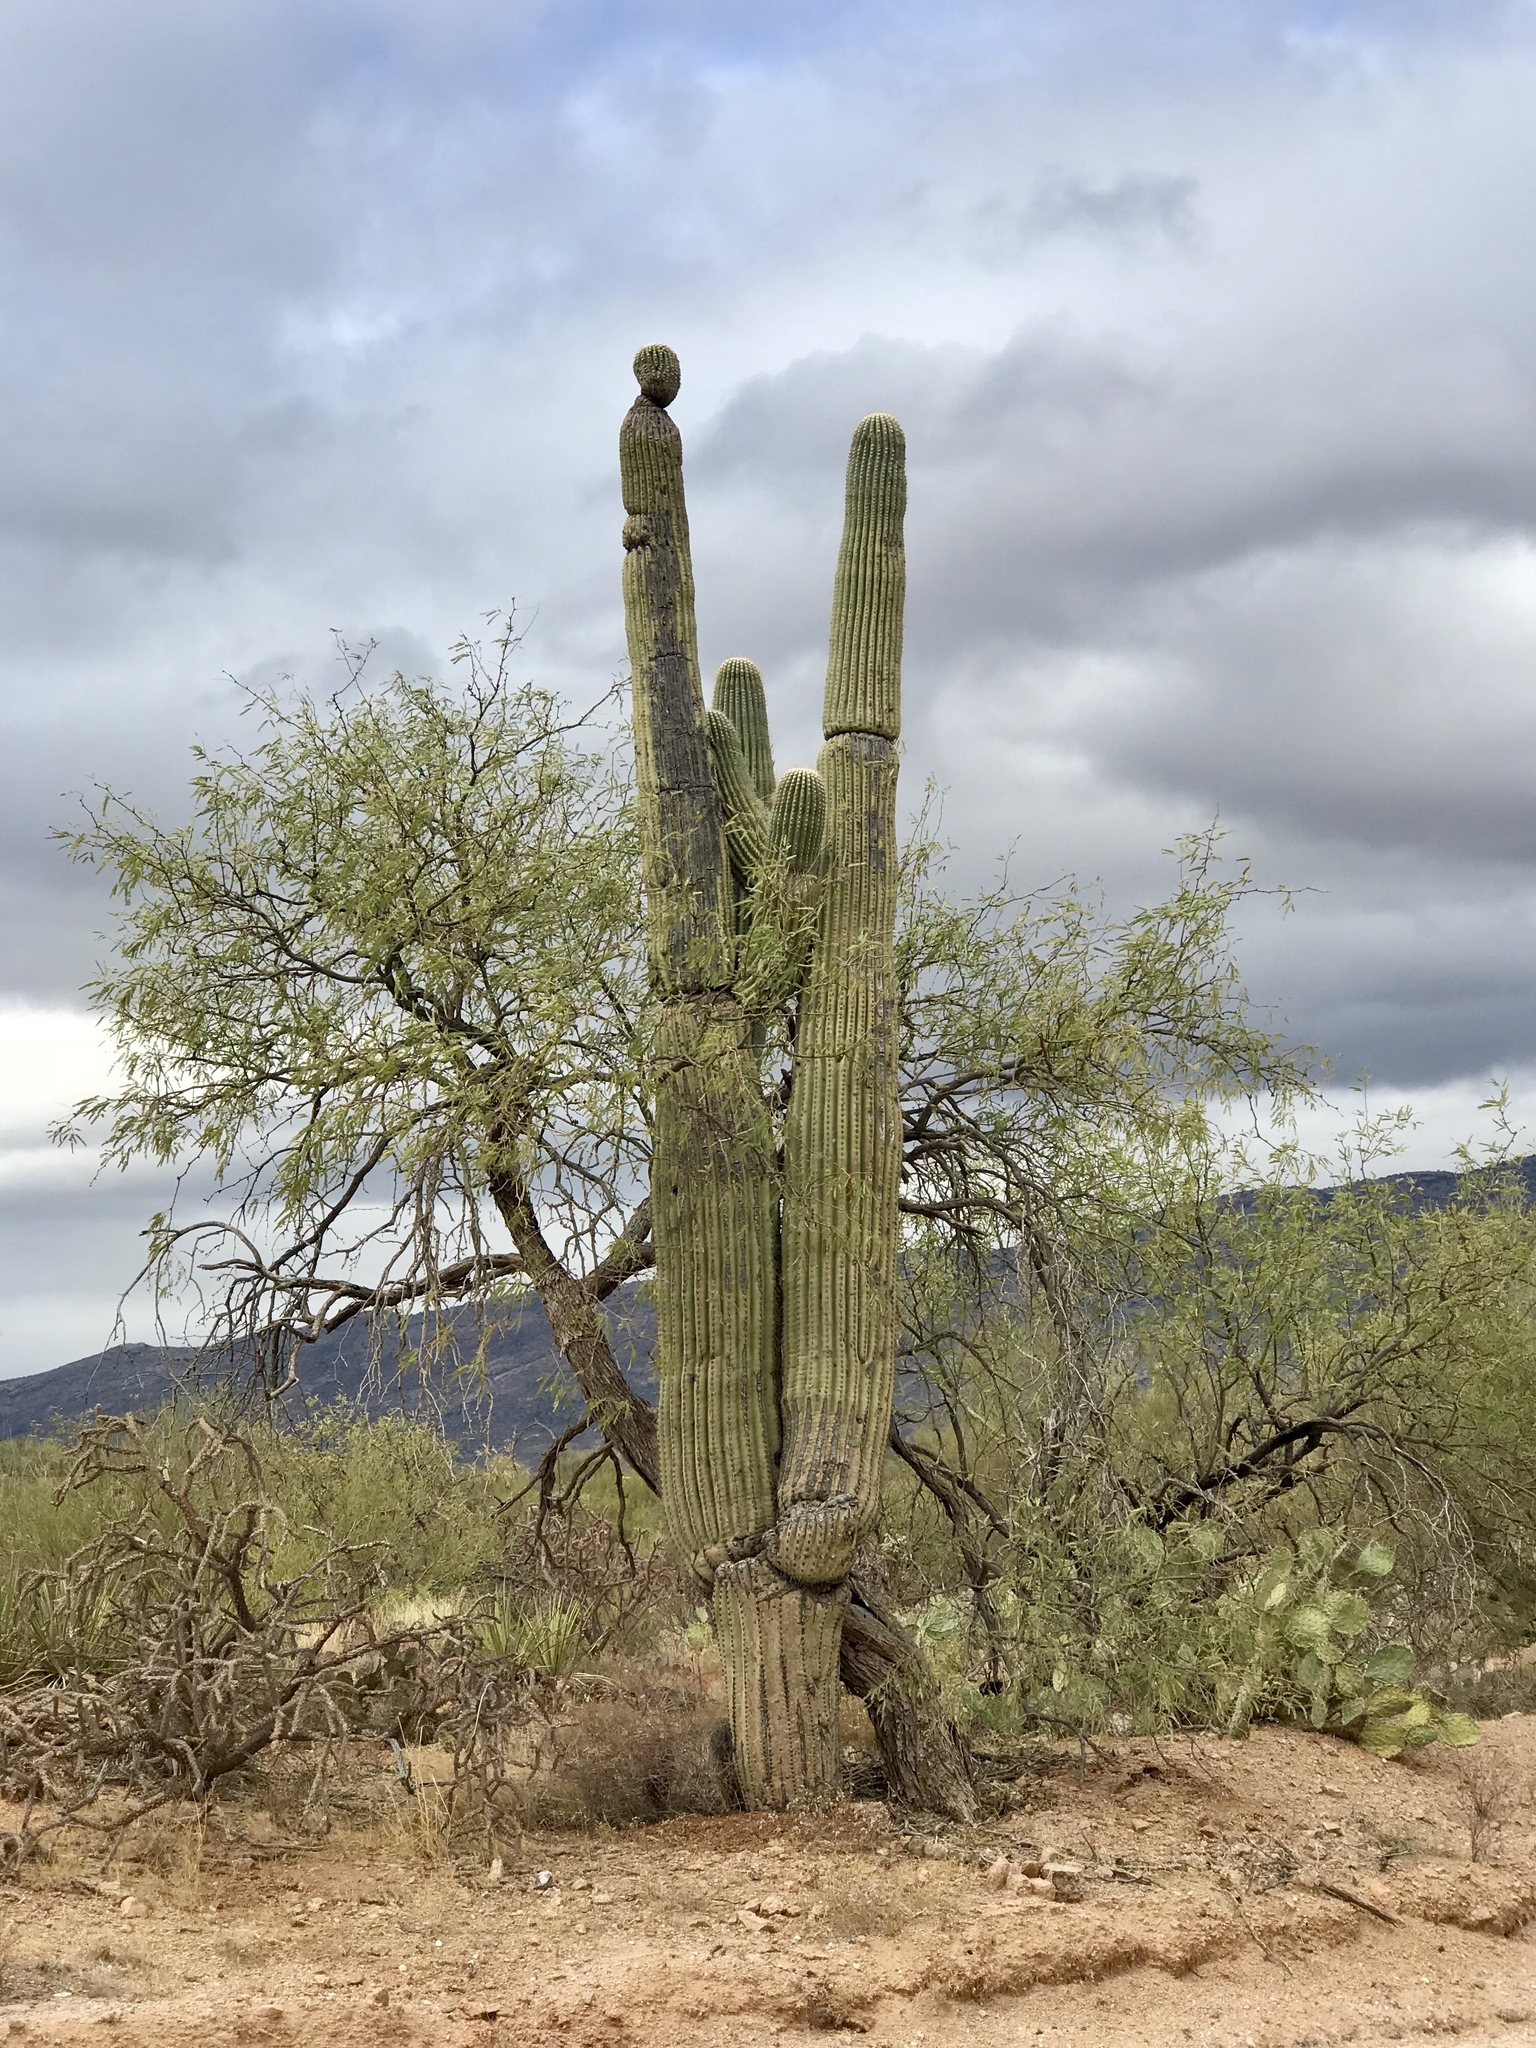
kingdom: Plantae
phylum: Tracheophyta
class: Magnoliopsida
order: Fabales
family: Fabaceae
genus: Parkinsonia
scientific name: Parkinsonia microphylla
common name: Yellow paloverde
